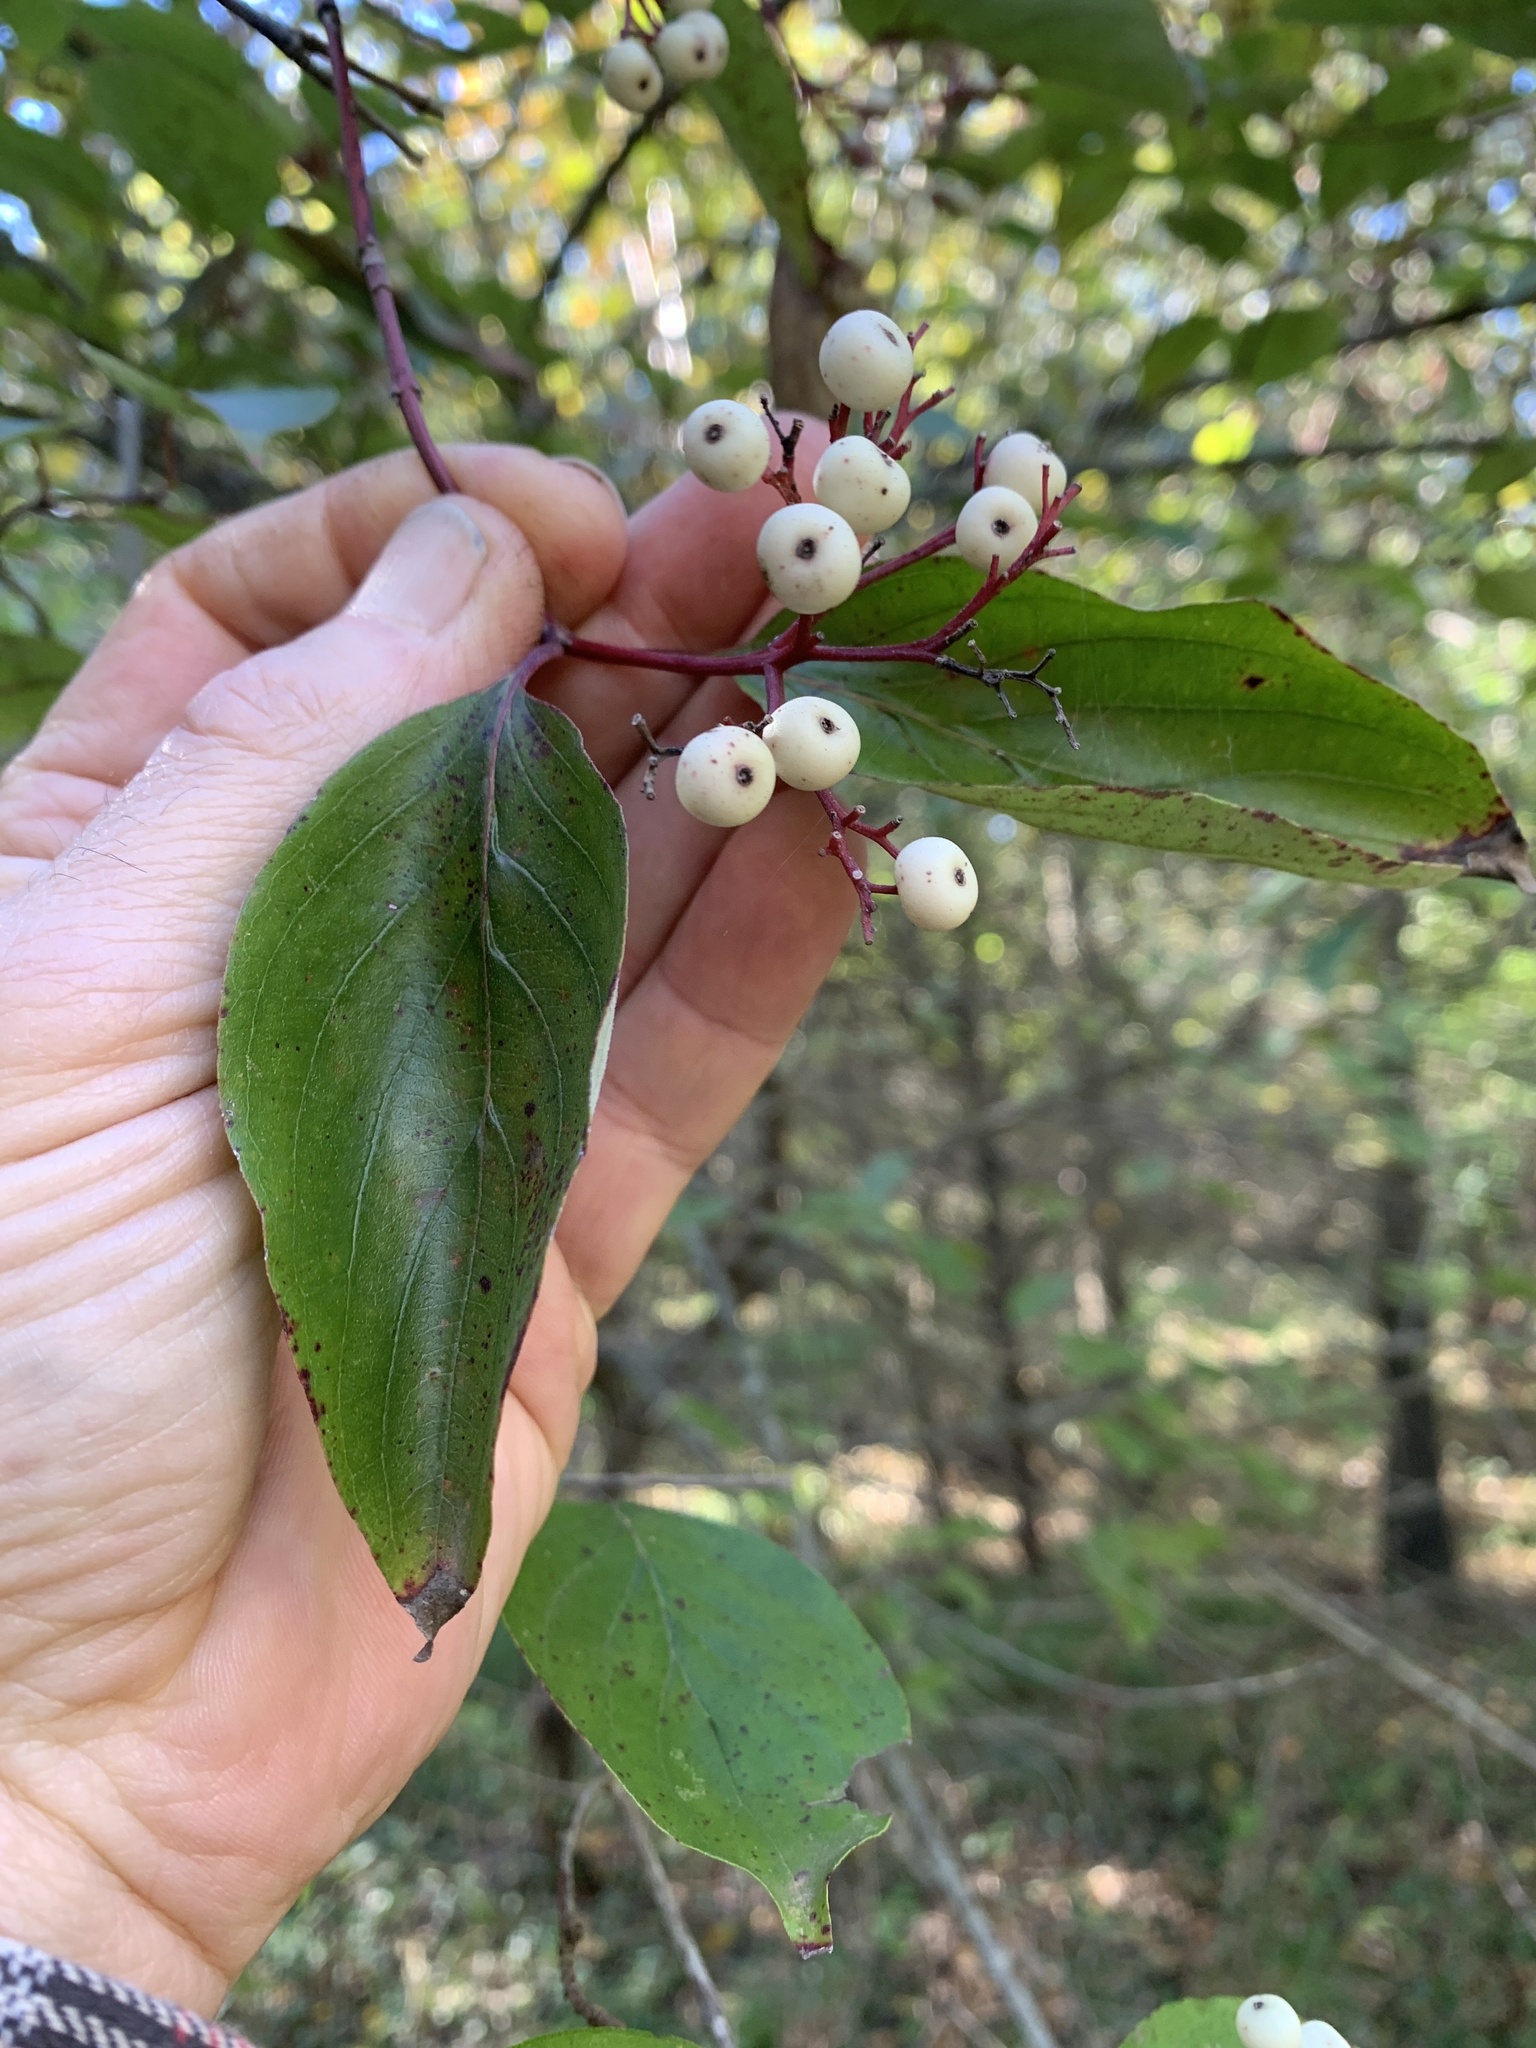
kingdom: Plantae
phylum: Tracheophyta
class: Magnoliopsida
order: Cornales
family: Cornaceae
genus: Cornus
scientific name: Cornus drummondii
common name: Rough-leaf dogwood
